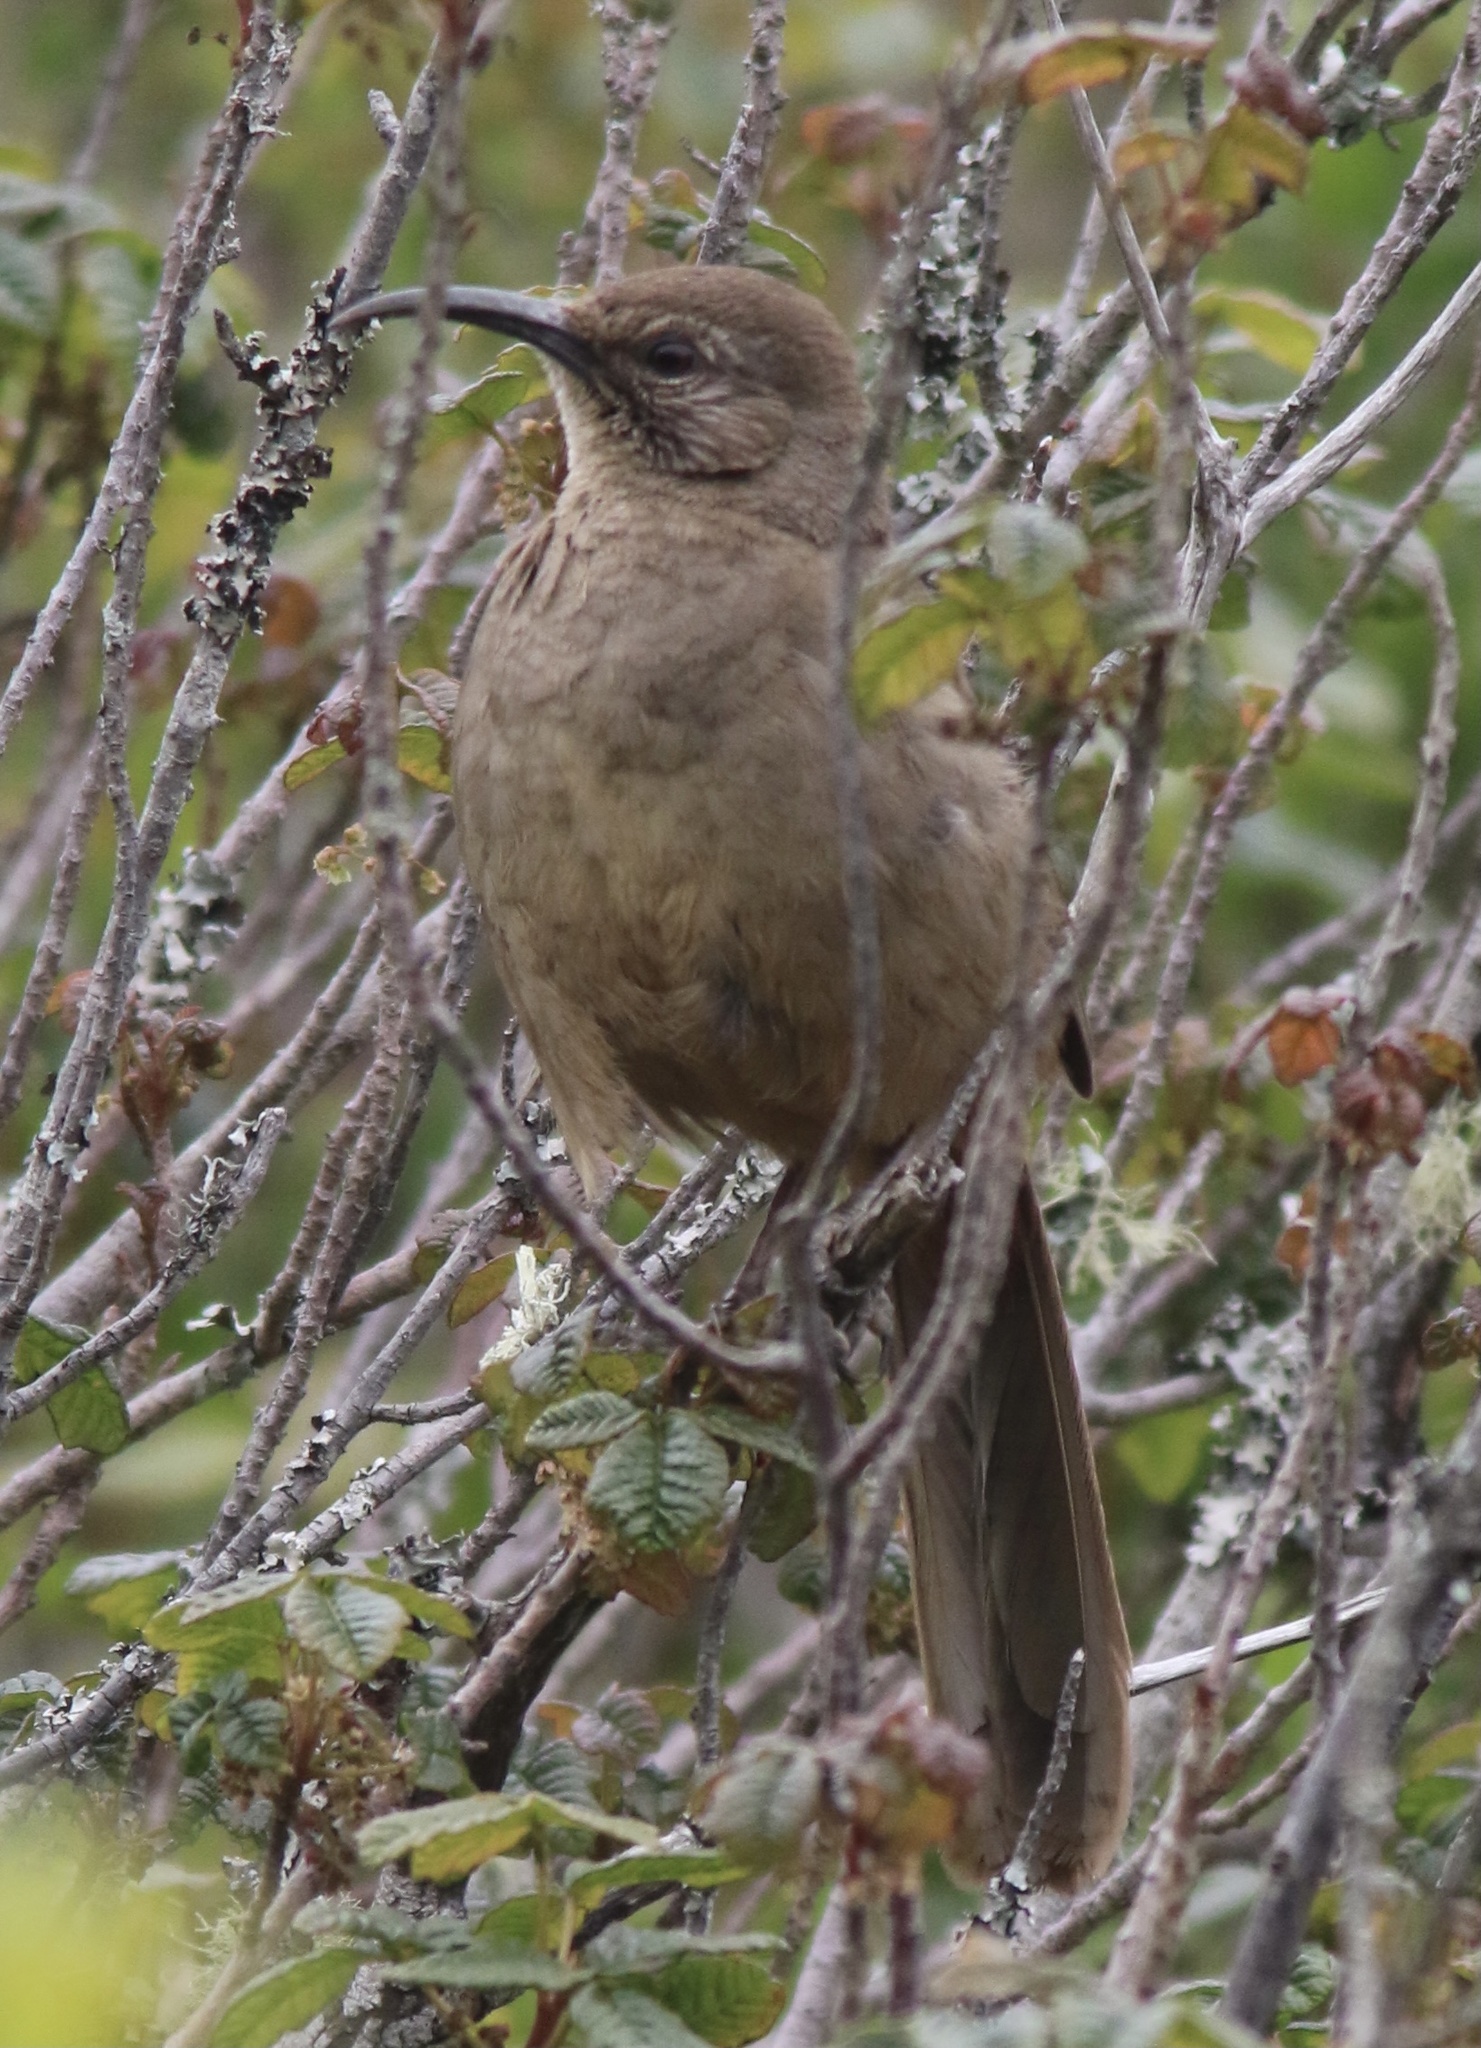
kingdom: Animalia
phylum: Chordata
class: Aves
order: Passeriformes
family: Mimidae
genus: Toxostoma
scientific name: Toxostoma redivivum
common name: California thrasher
